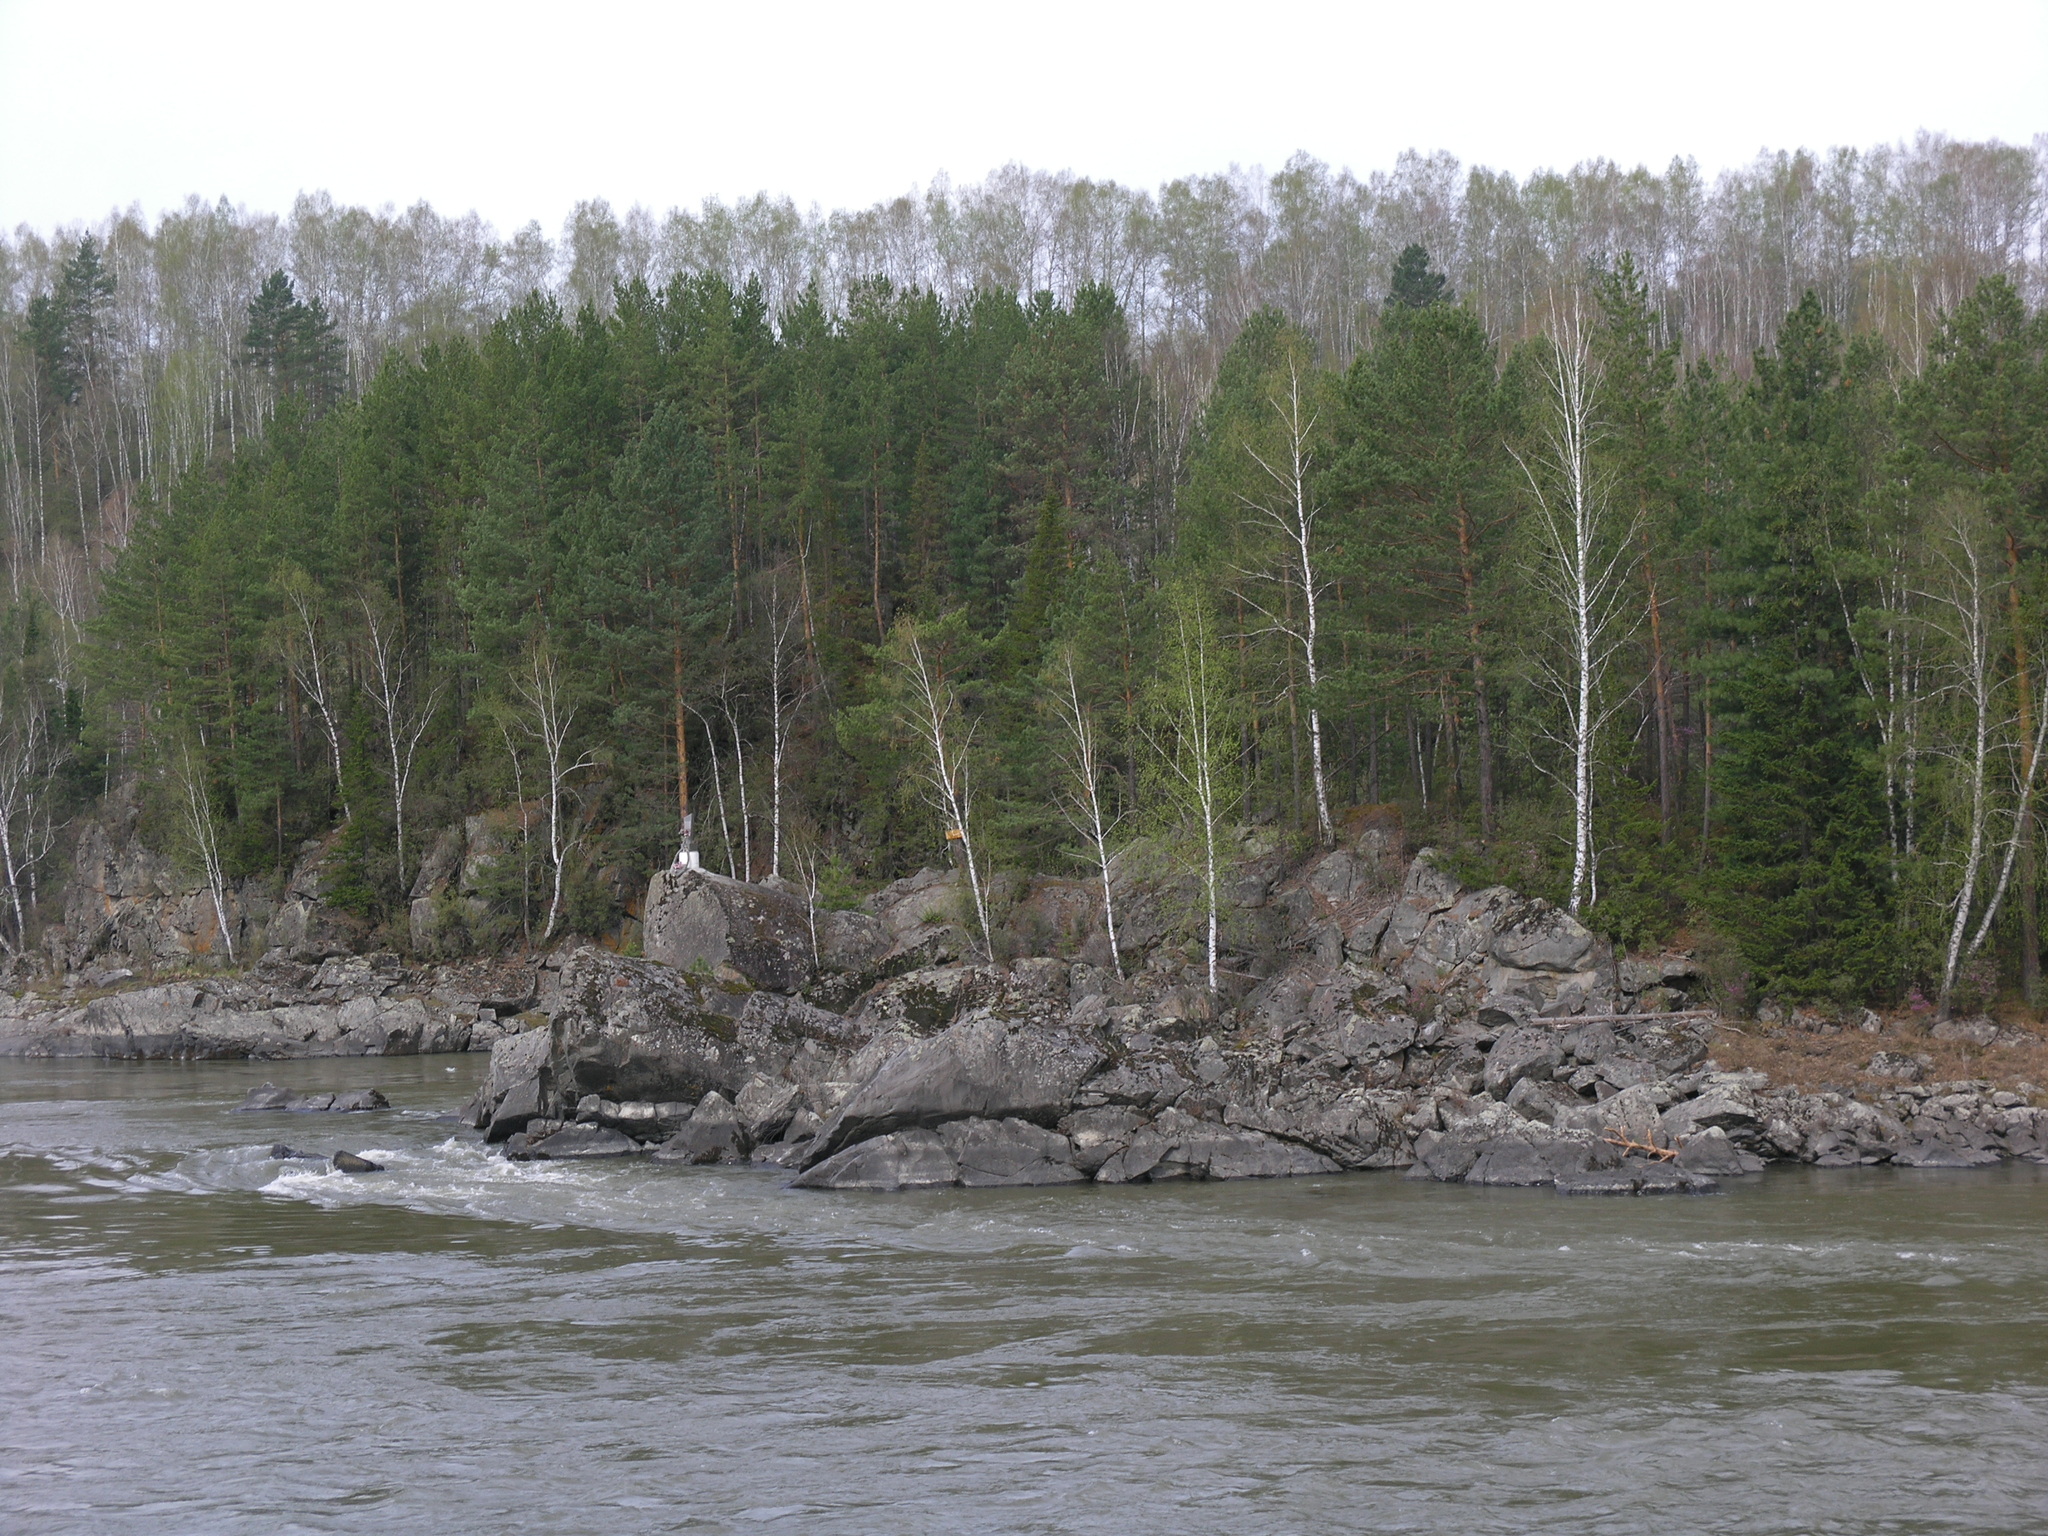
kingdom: Plantae
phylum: Tracheophyta
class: Pinopsida
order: Pinales
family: Pinaceae
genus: Pinus
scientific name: Pinus sylvestris
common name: Scots pine
